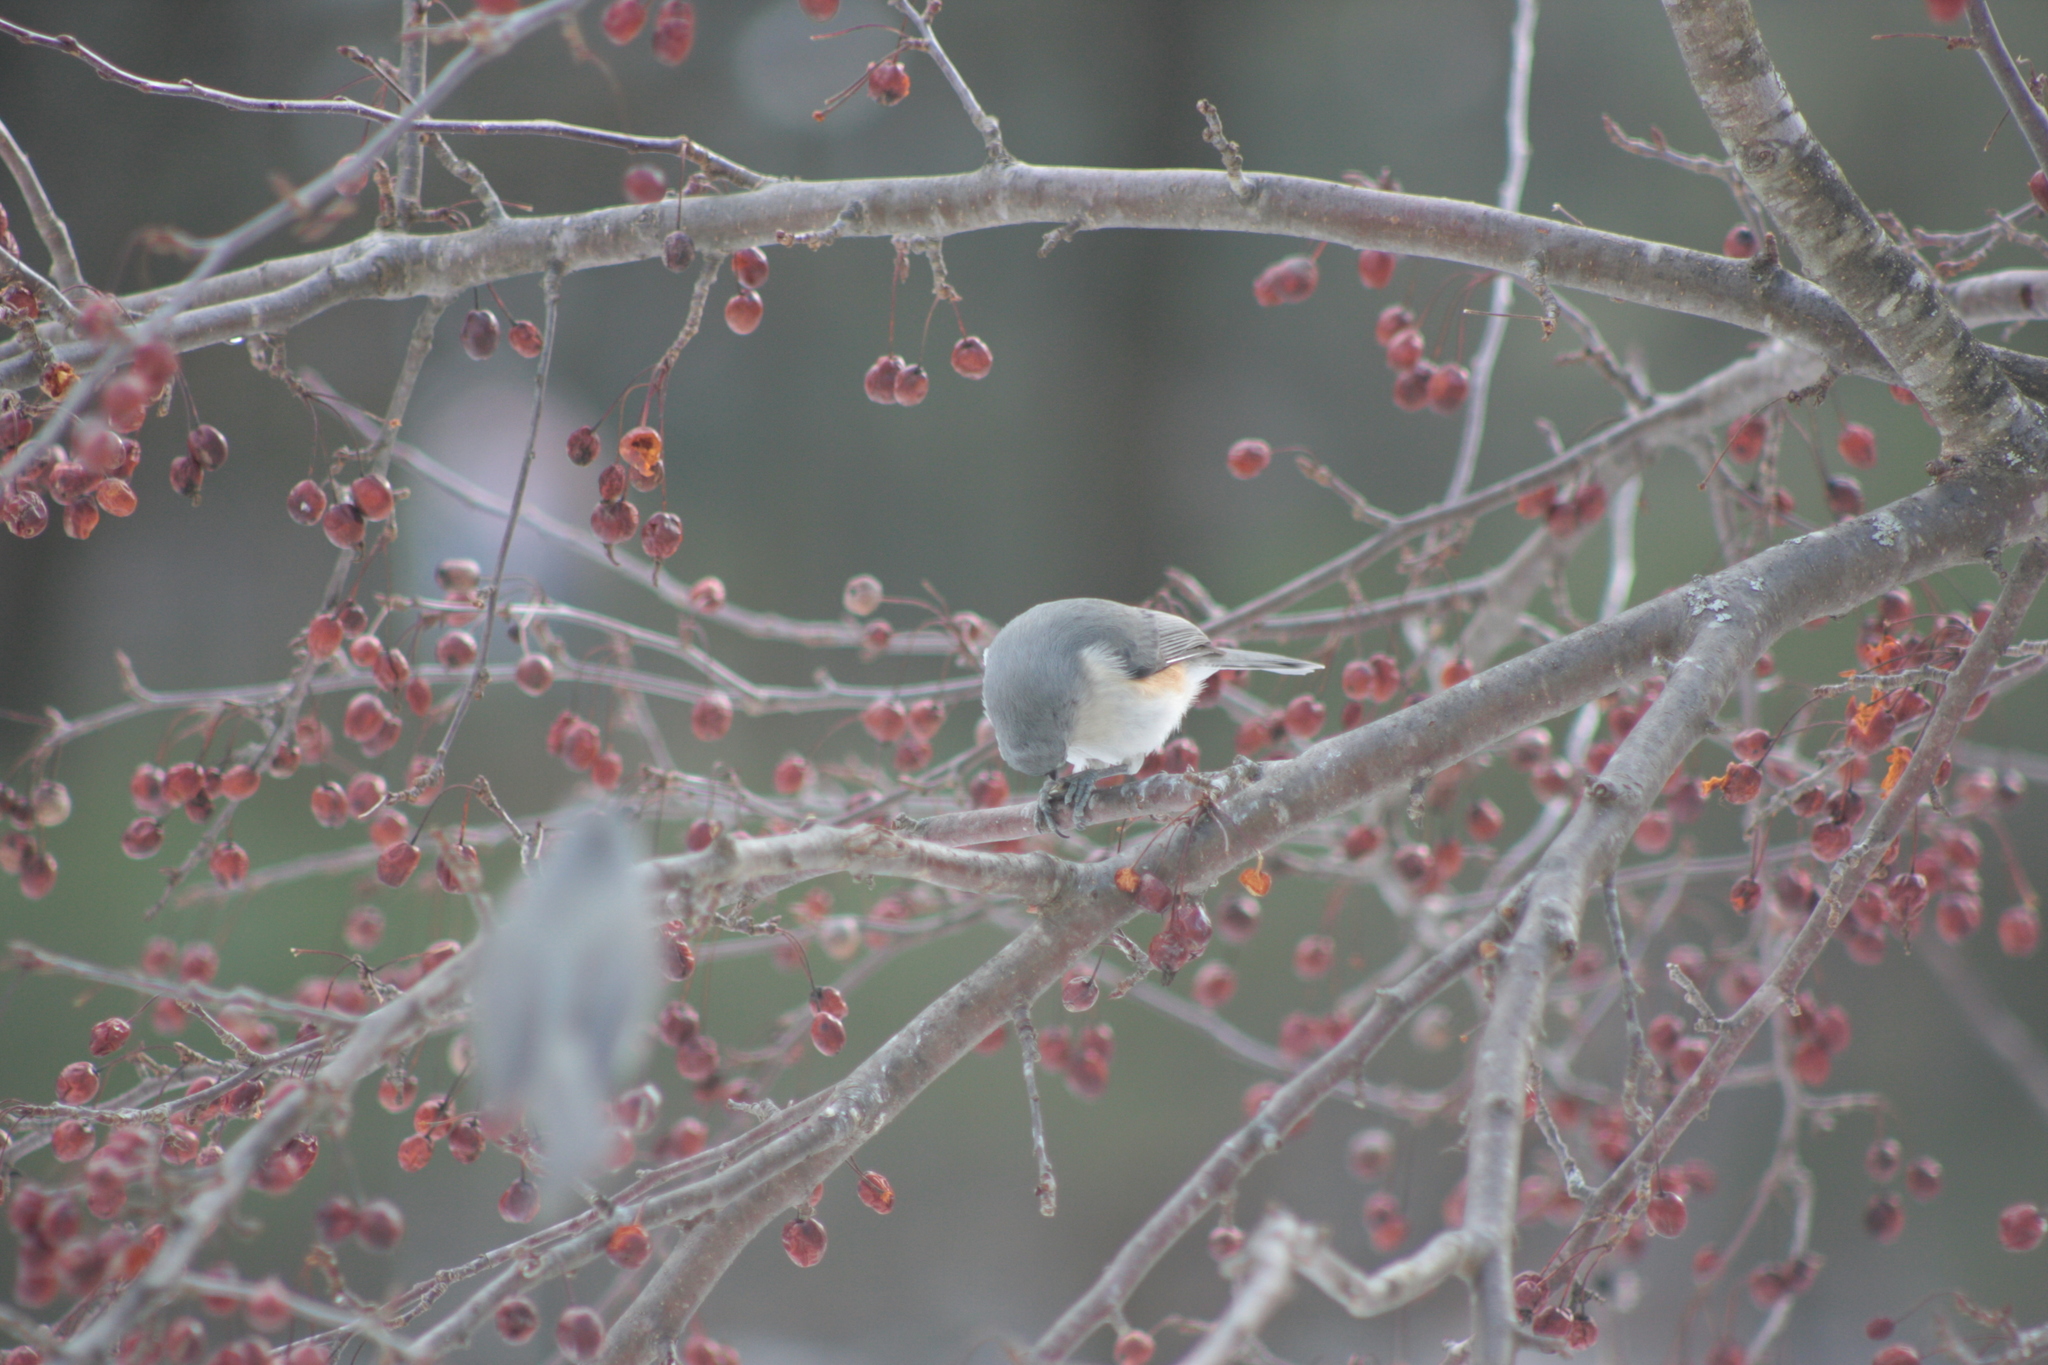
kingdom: Animalia
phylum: Chordata
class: Aves
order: Passeriformes
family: Paridae
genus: Baeolophus
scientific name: Baeolophus bicolor
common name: Tufted titmouse
